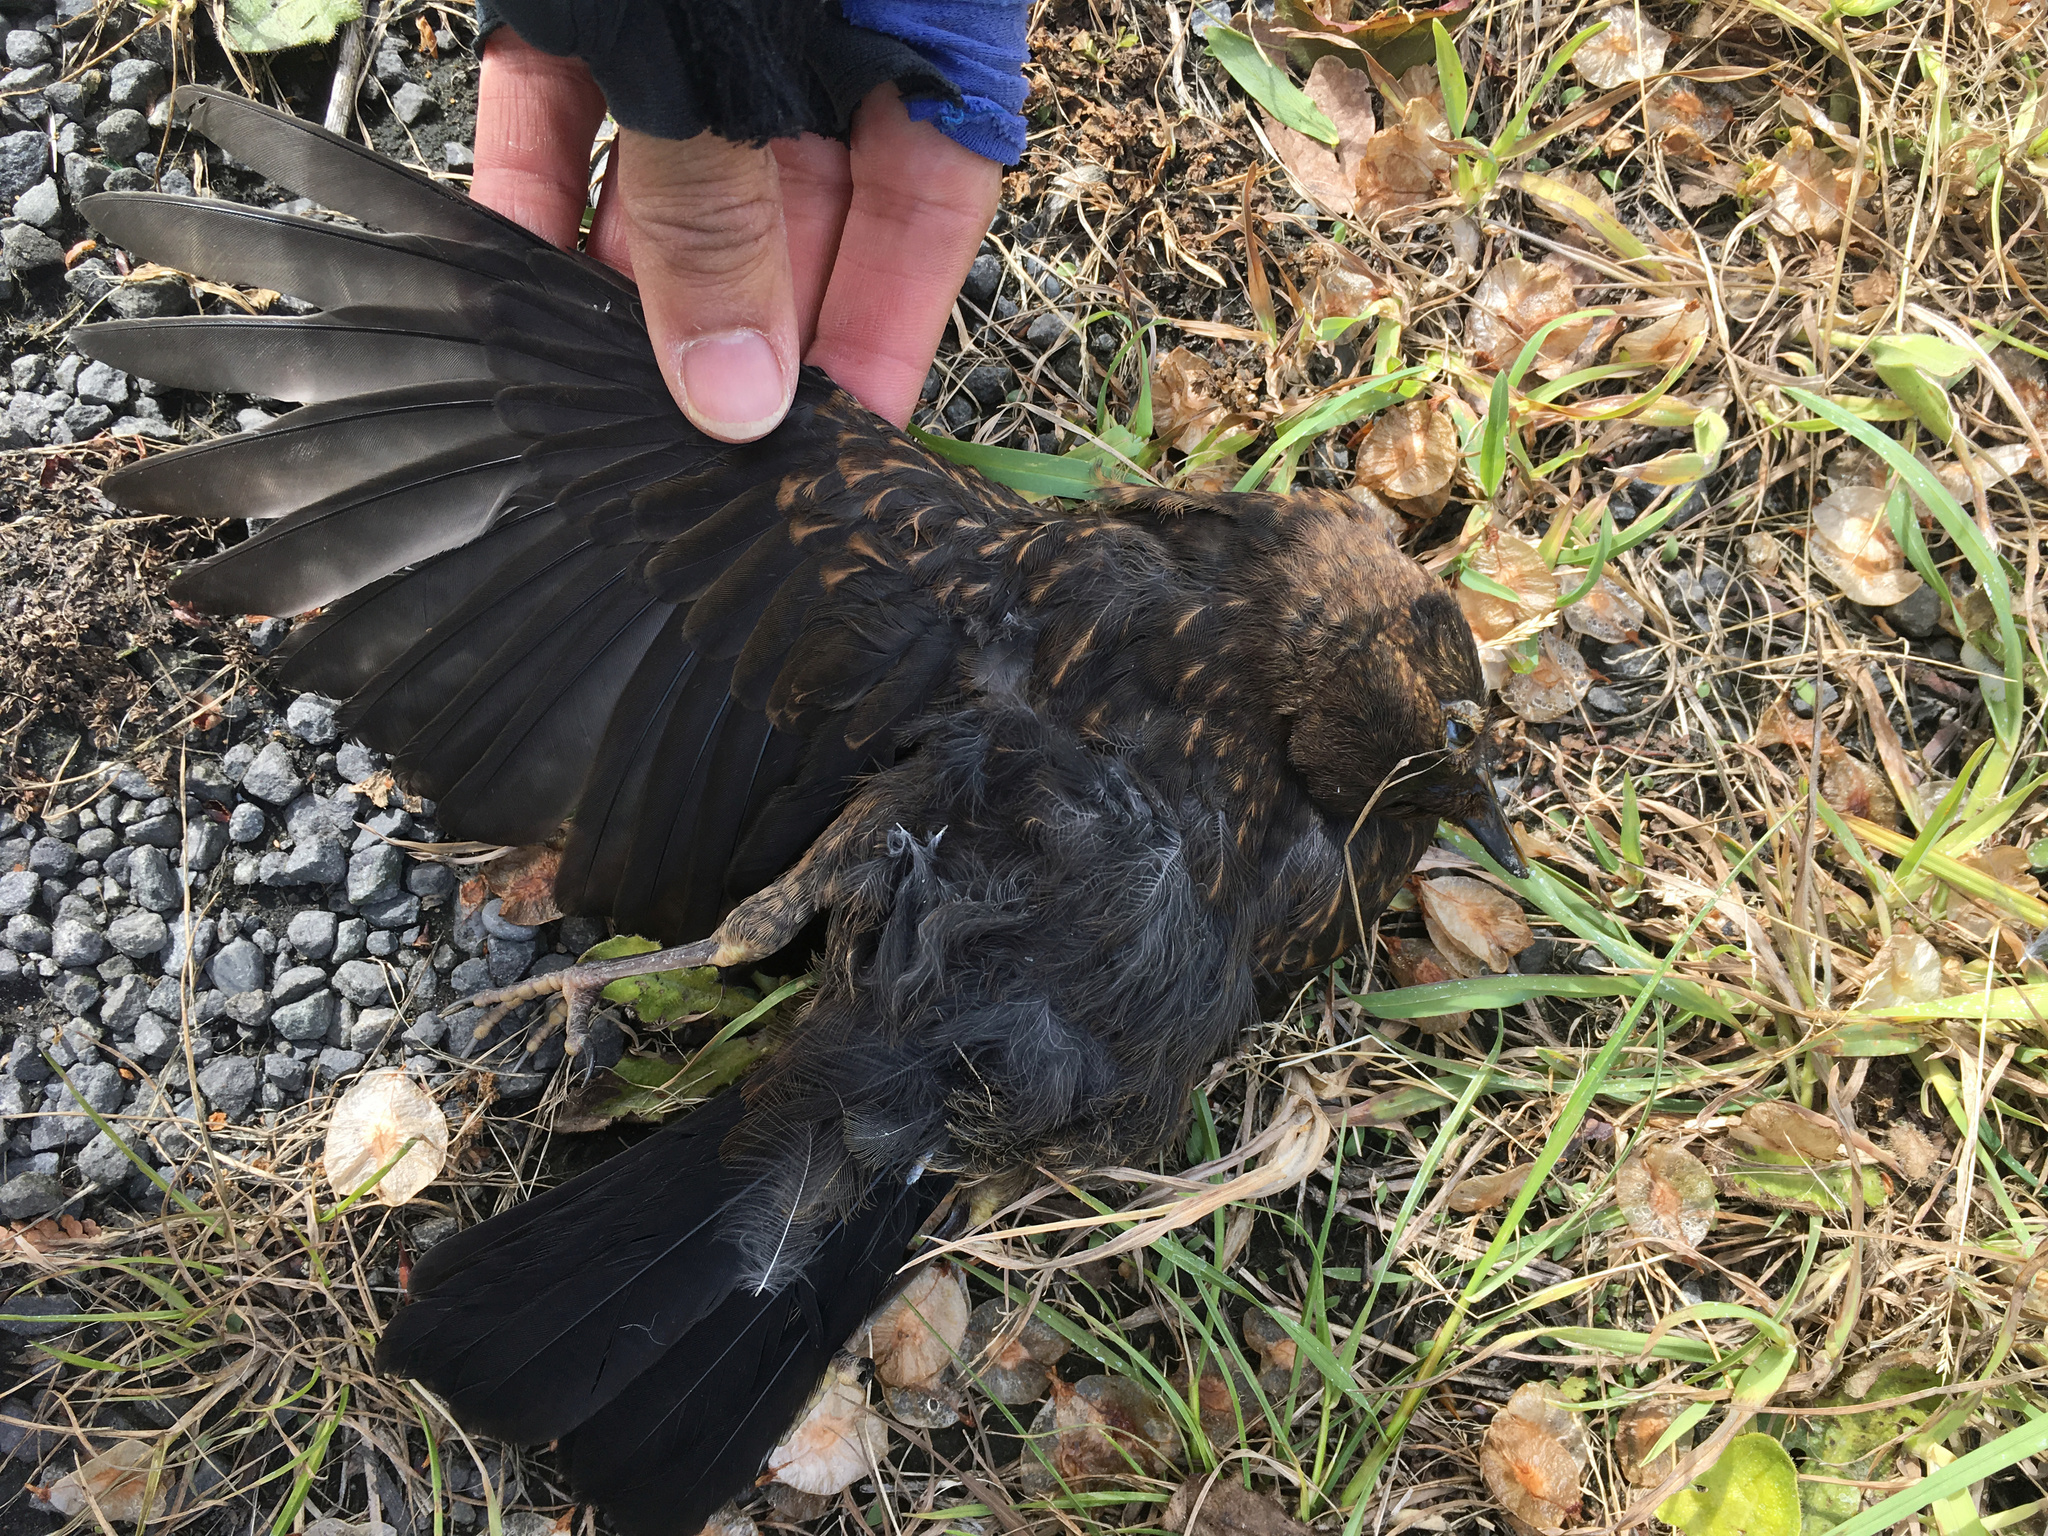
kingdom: Animalia
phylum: Chordata
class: Aves
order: Passeriformes
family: Turdidae
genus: Turdus
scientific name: Turdus merula
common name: Common blackbird
